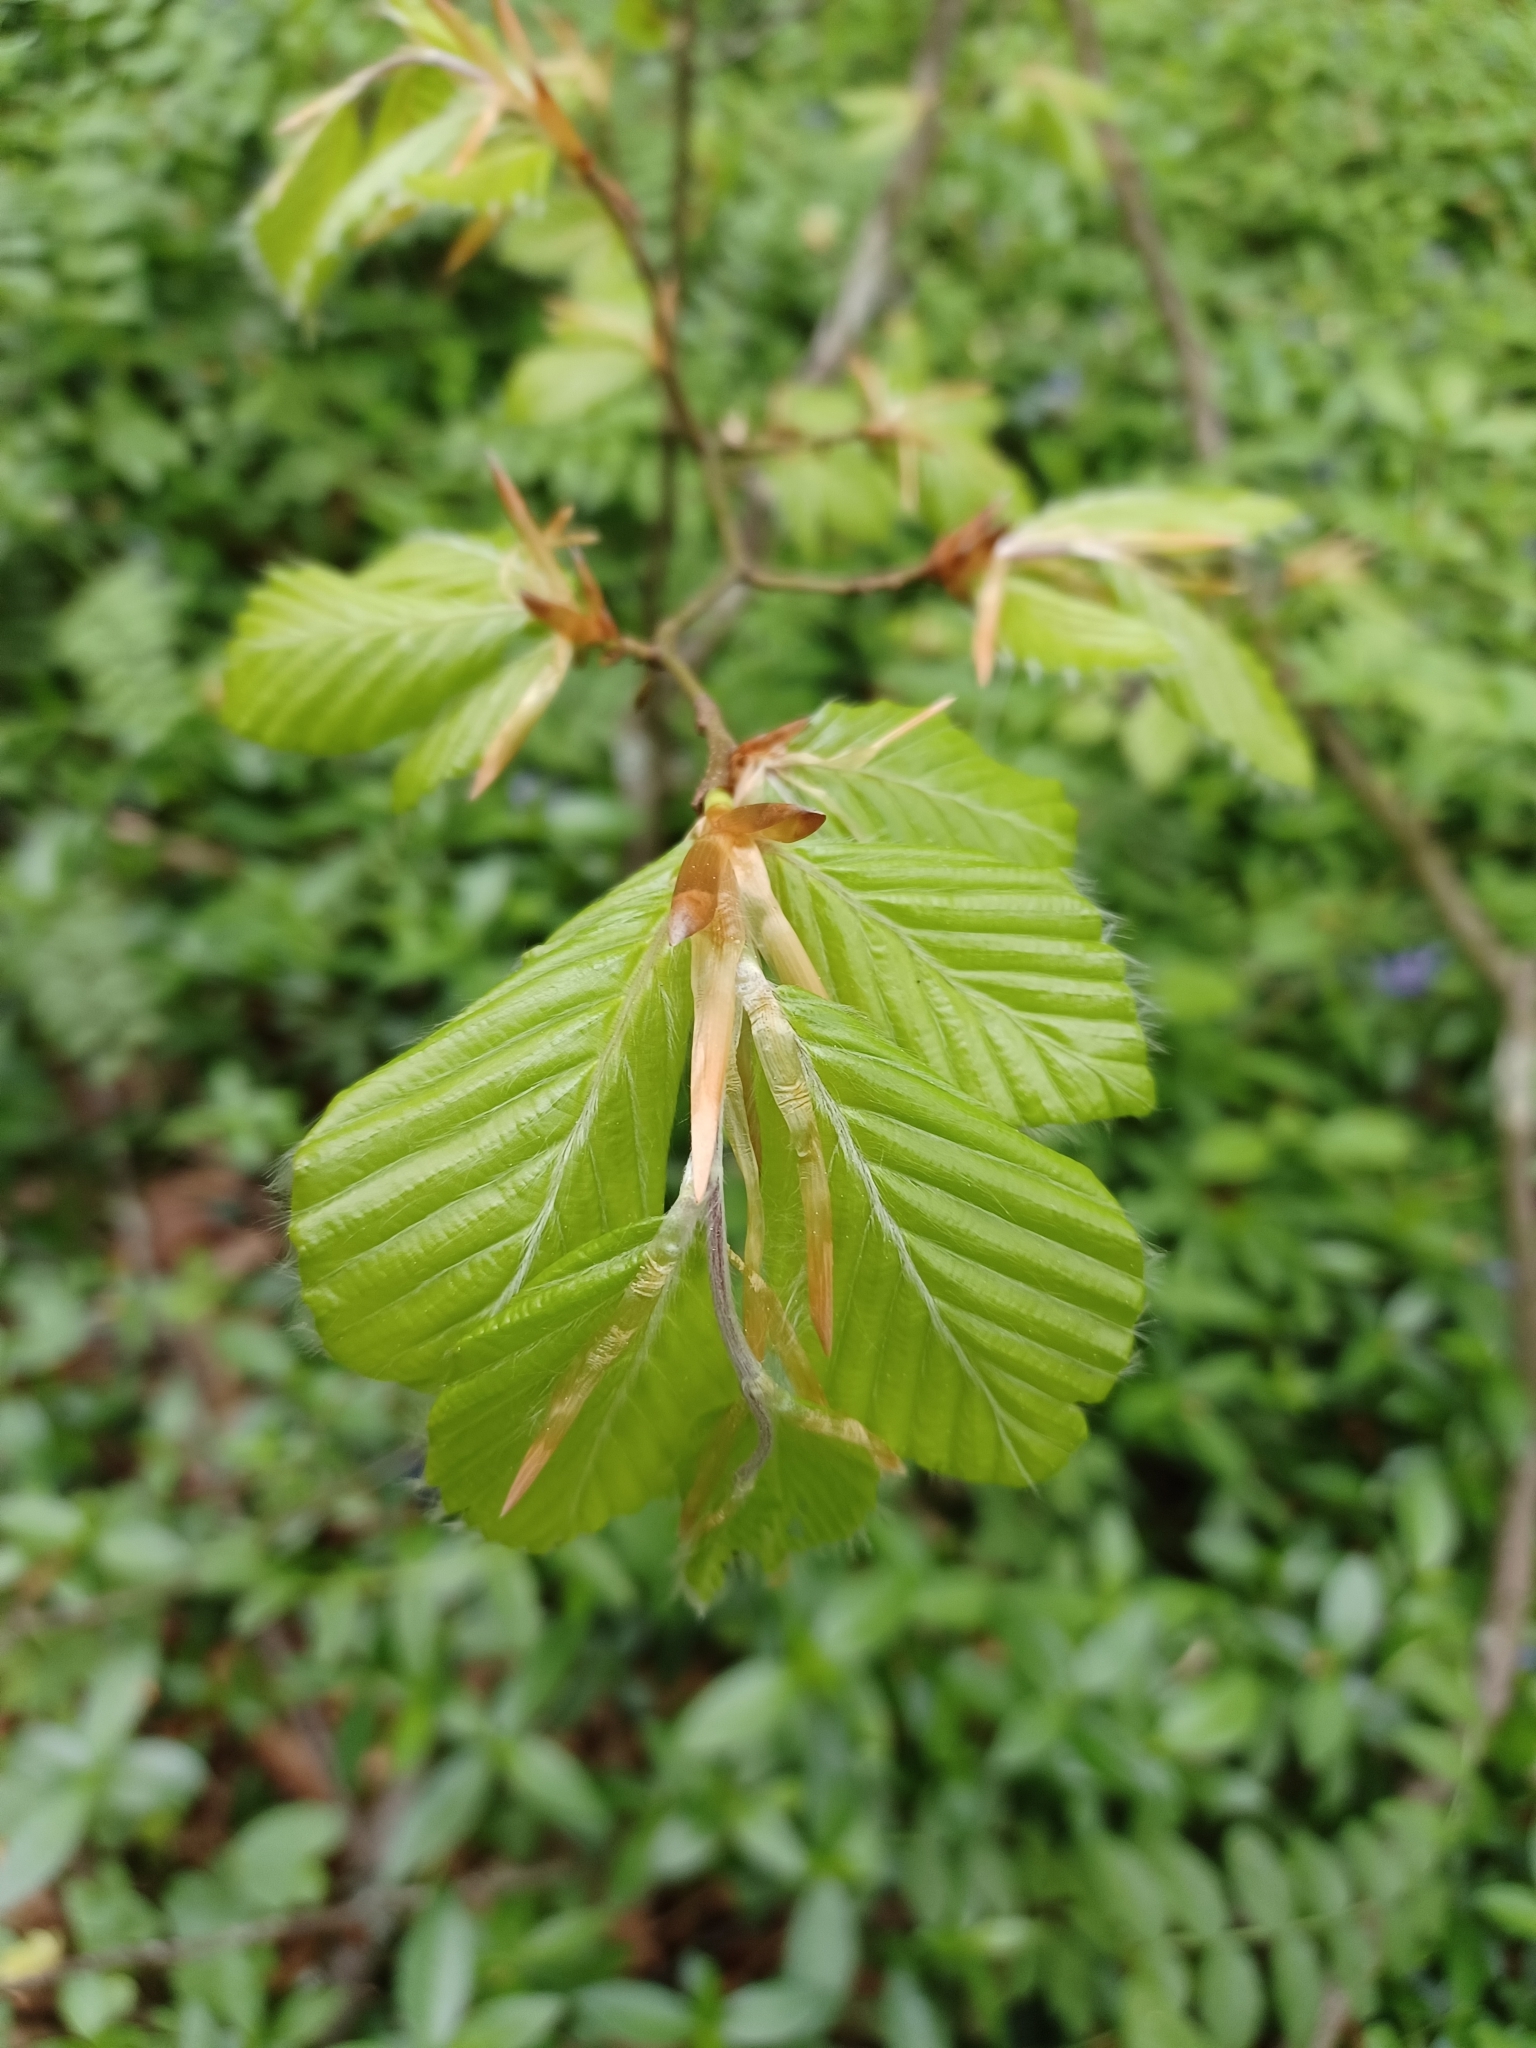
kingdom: Plantae
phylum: Tracheophyta
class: Magnoliopsida
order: Fagales
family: Fagaceae
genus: Fagus
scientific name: Fagus sylvatica
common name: Beech
